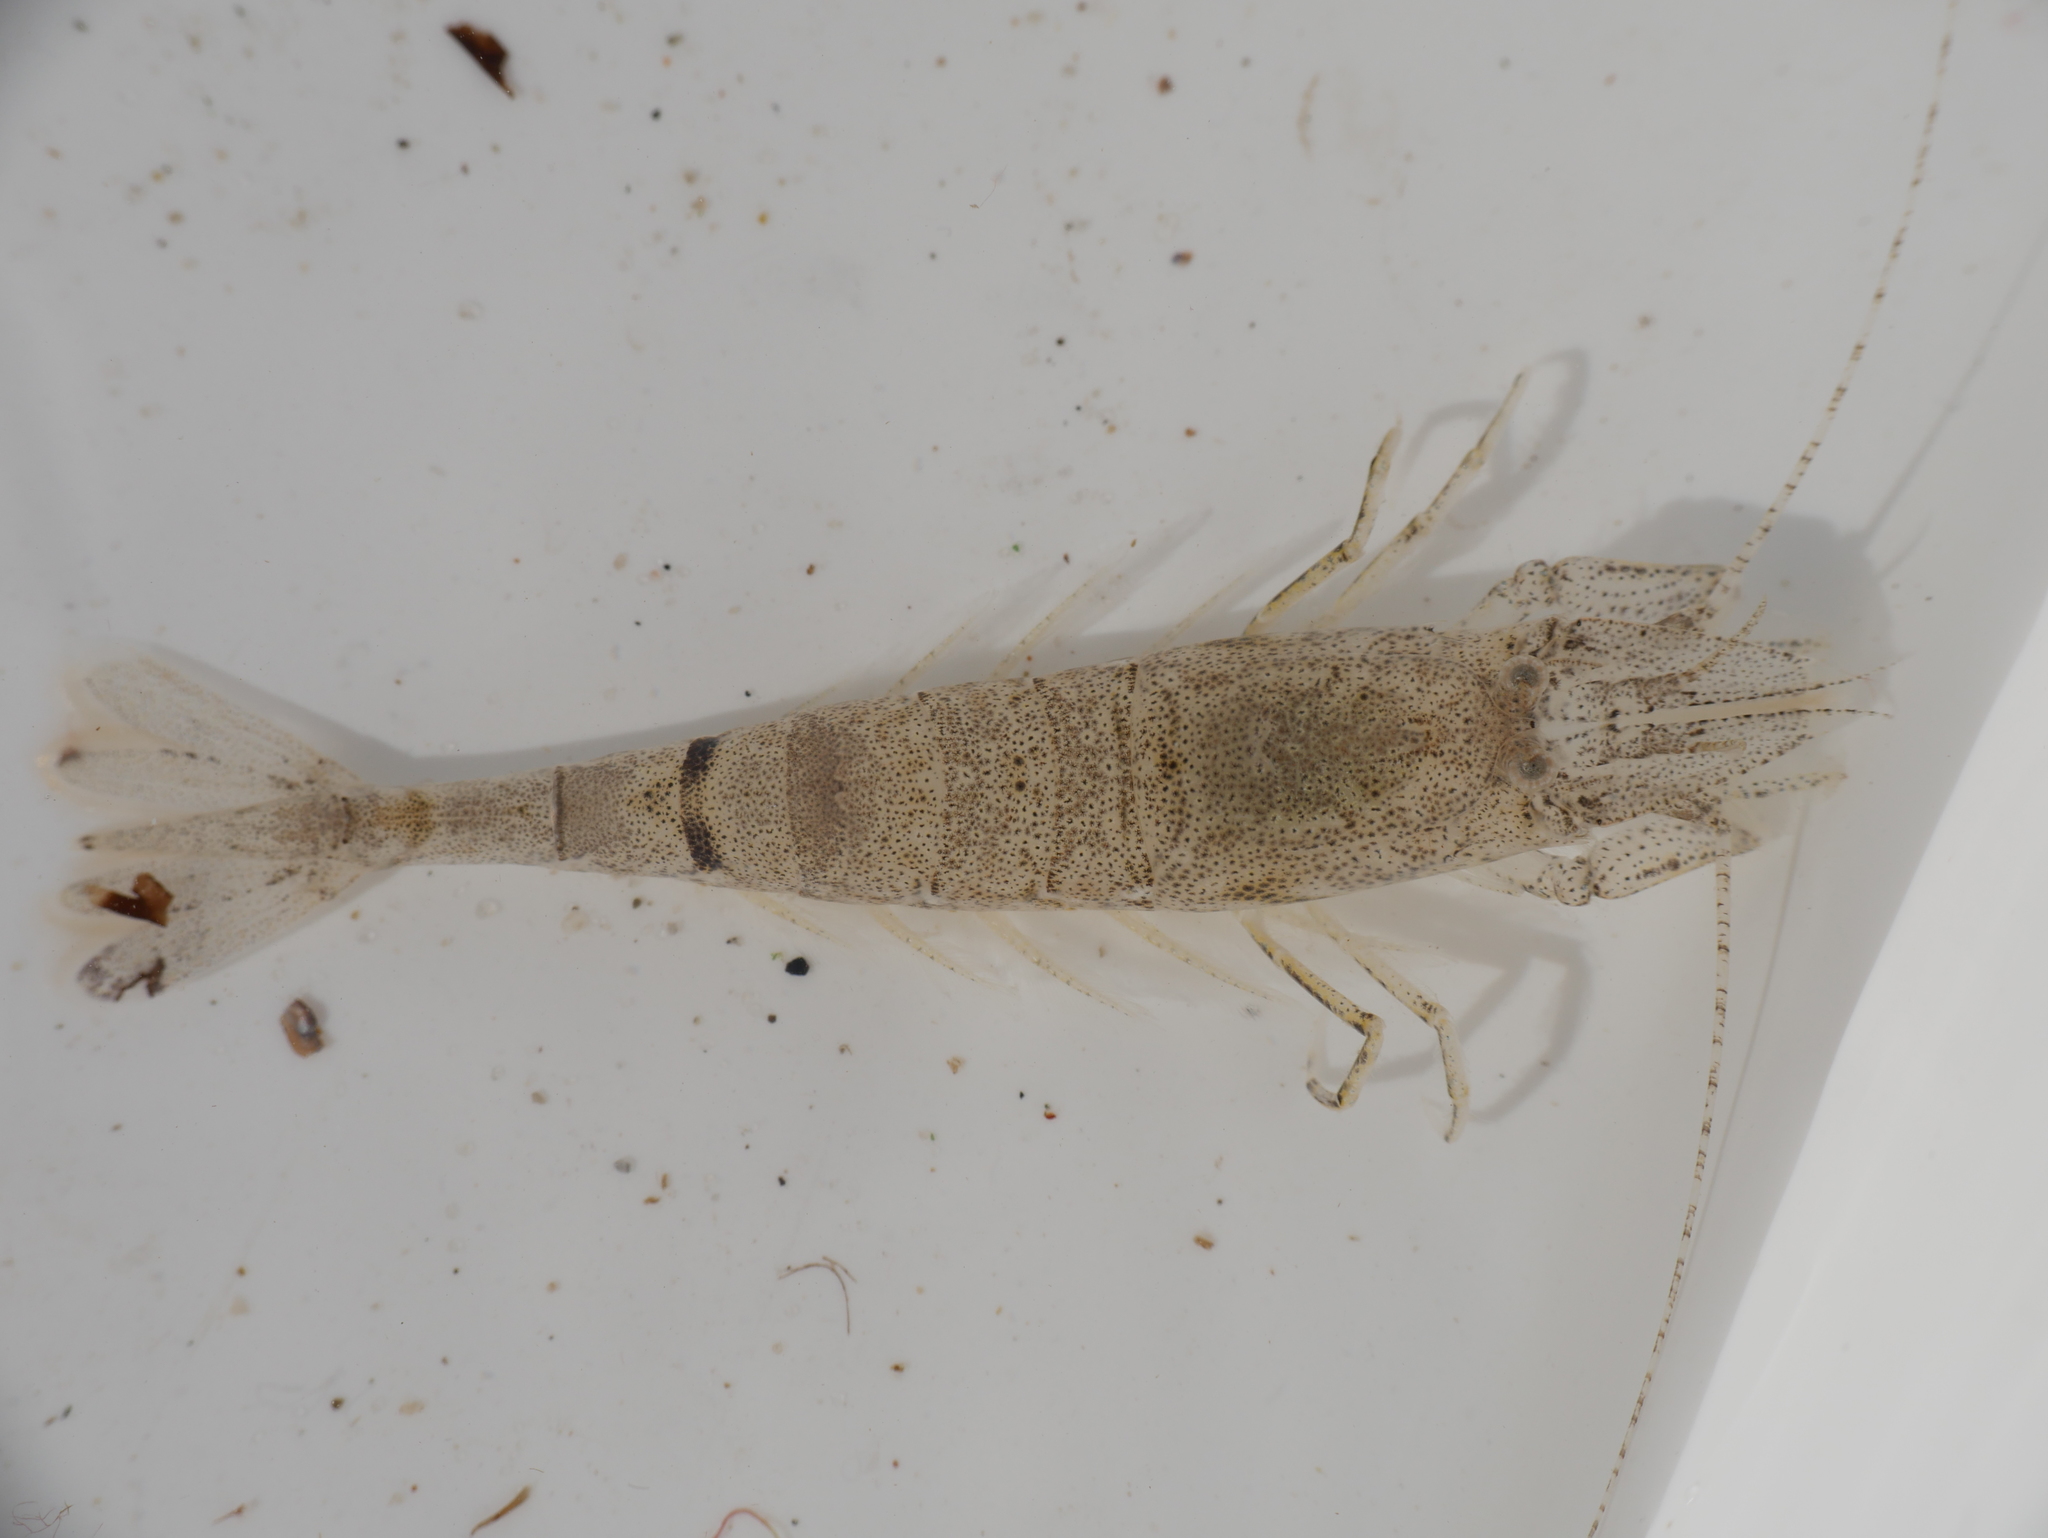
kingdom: Animalia
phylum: Arthropoda
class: Malacostraca
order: Decapoda
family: Crangonidae
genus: Crangon
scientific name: Crangon crangon
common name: Brown shrimp
